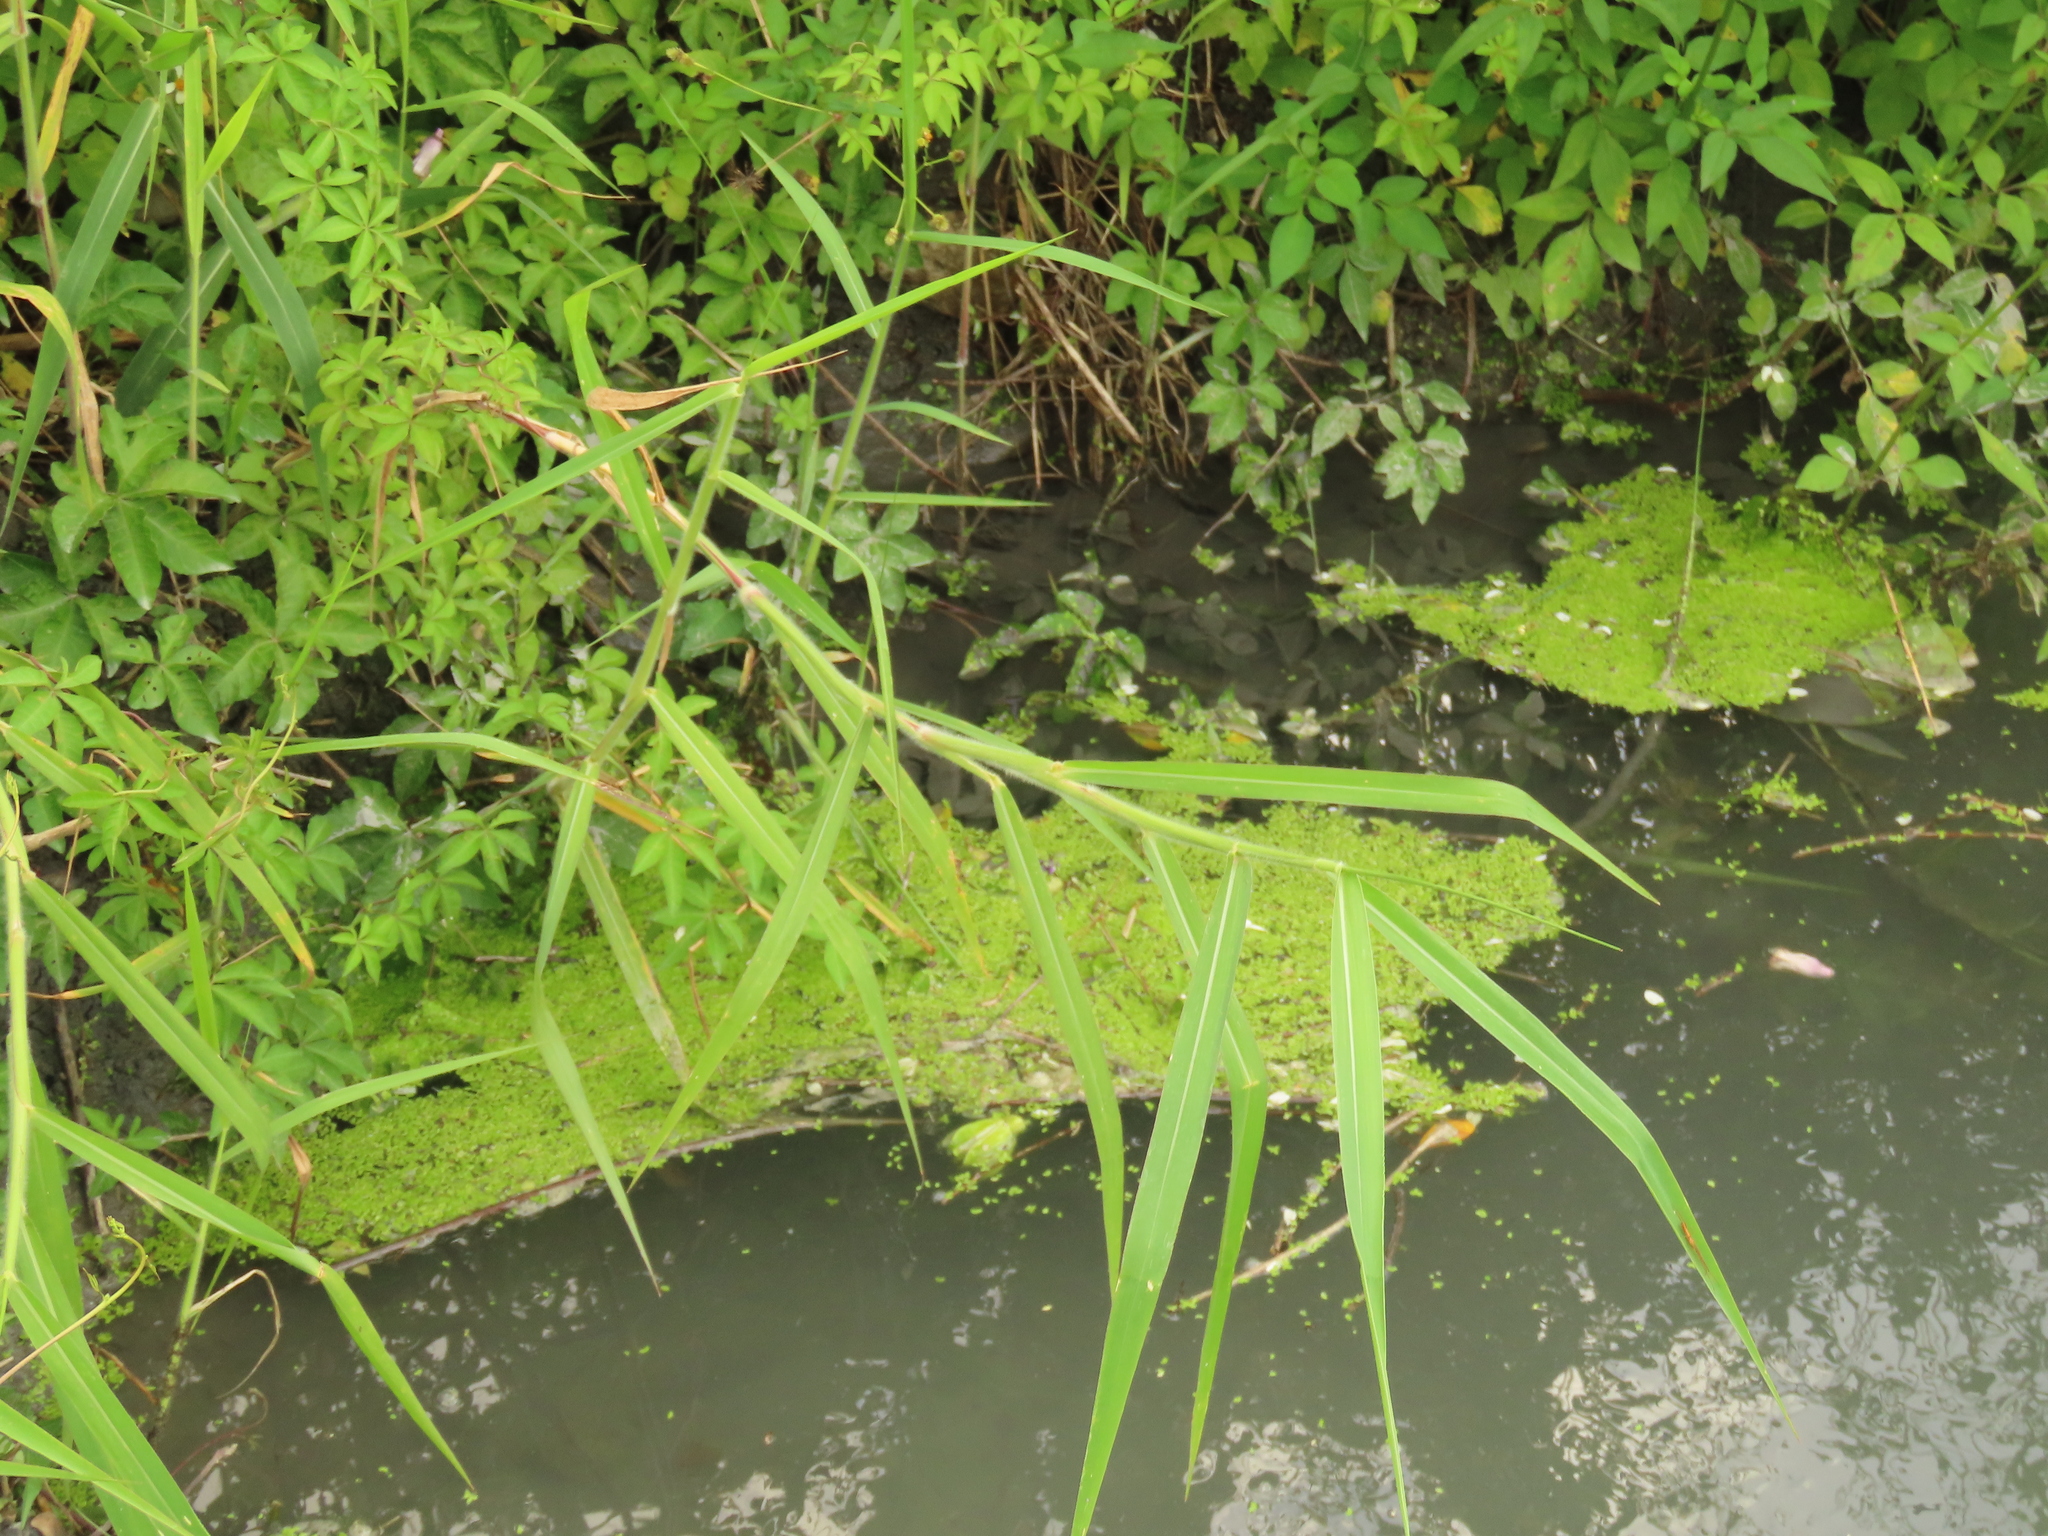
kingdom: Plantae
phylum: Tracheophyta
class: Liliopsida
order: Alismatales
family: Araceae
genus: Lemna
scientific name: Lemna aequinoctialis
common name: Duckweed
